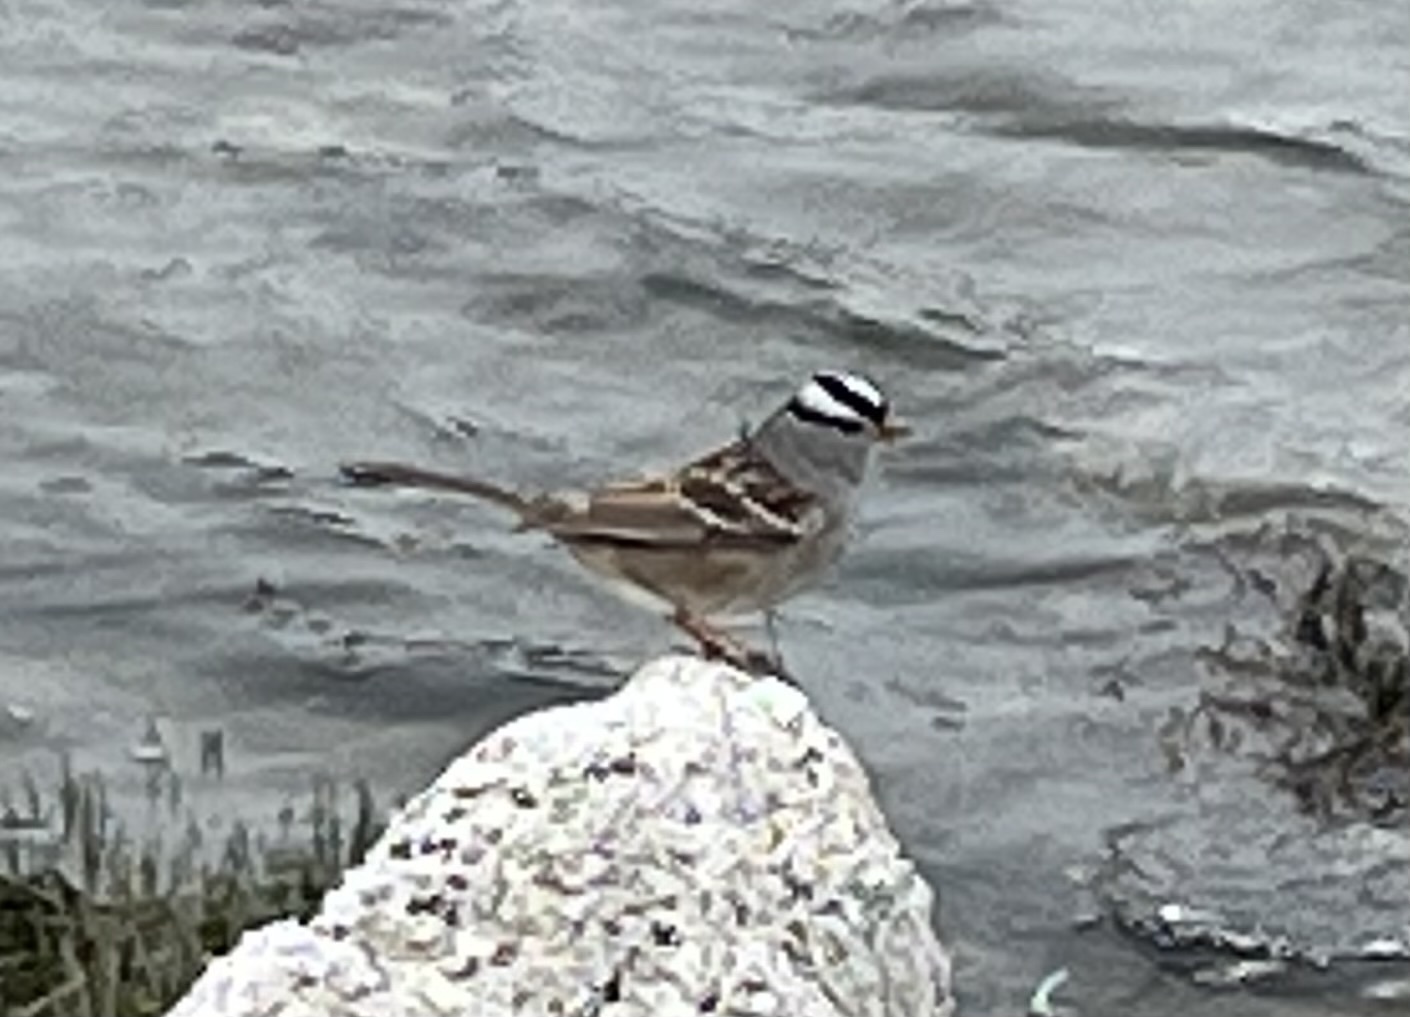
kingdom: Animalia
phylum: Chordata
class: Aves
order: Passeriformes
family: Passerellidae
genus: Zonotrichia
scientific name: Zonotrichia leucophrys
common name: White-crowned sparrow
